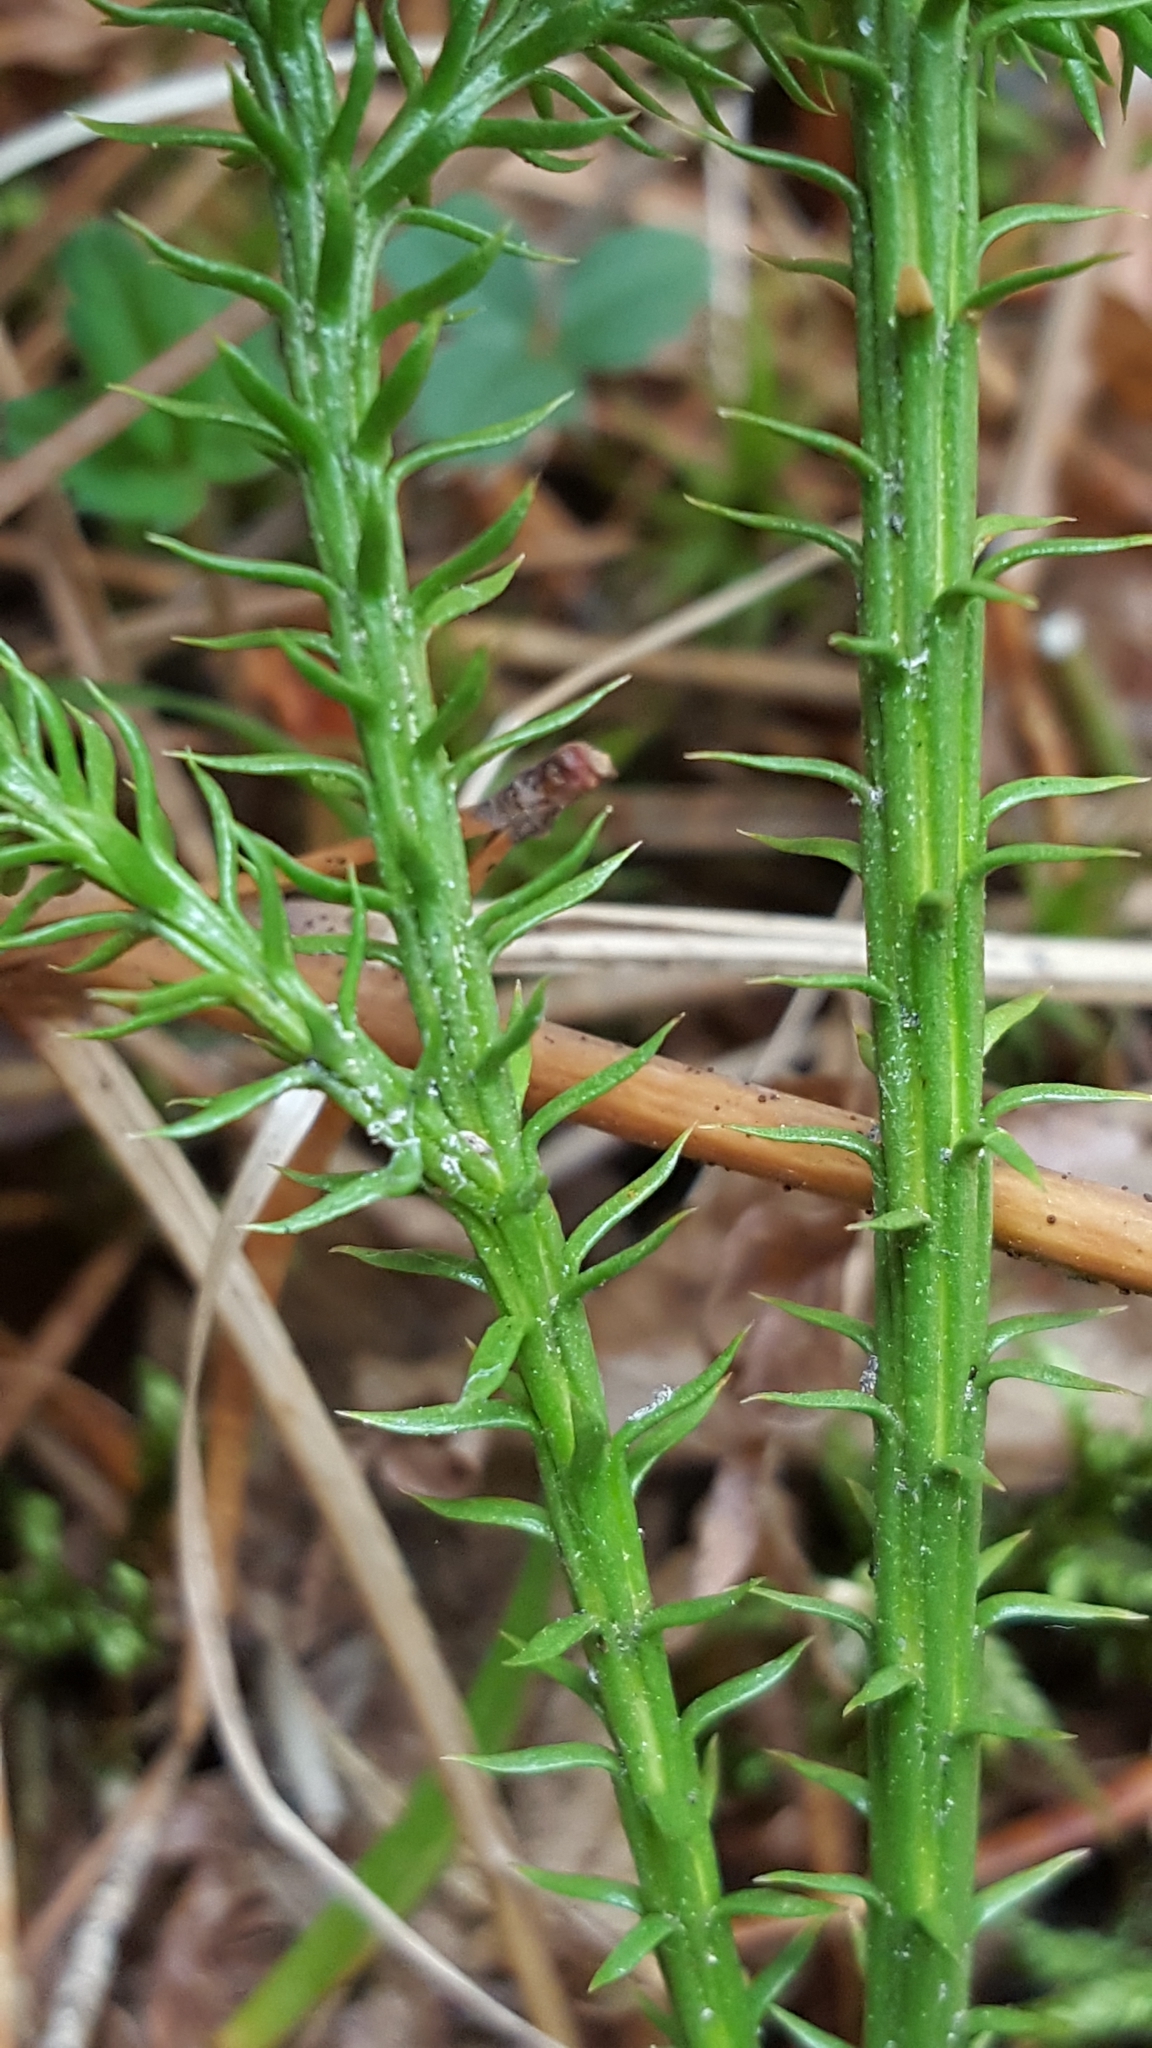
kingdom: Plantae
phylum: Tracheophyta
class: Lycopodiopsida
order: Lycopodiales
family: Lycopodiaceae
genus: Dendrolycopodium
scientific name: Dendrolycopodium dendroideum
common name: Northern tree-clubmoss
